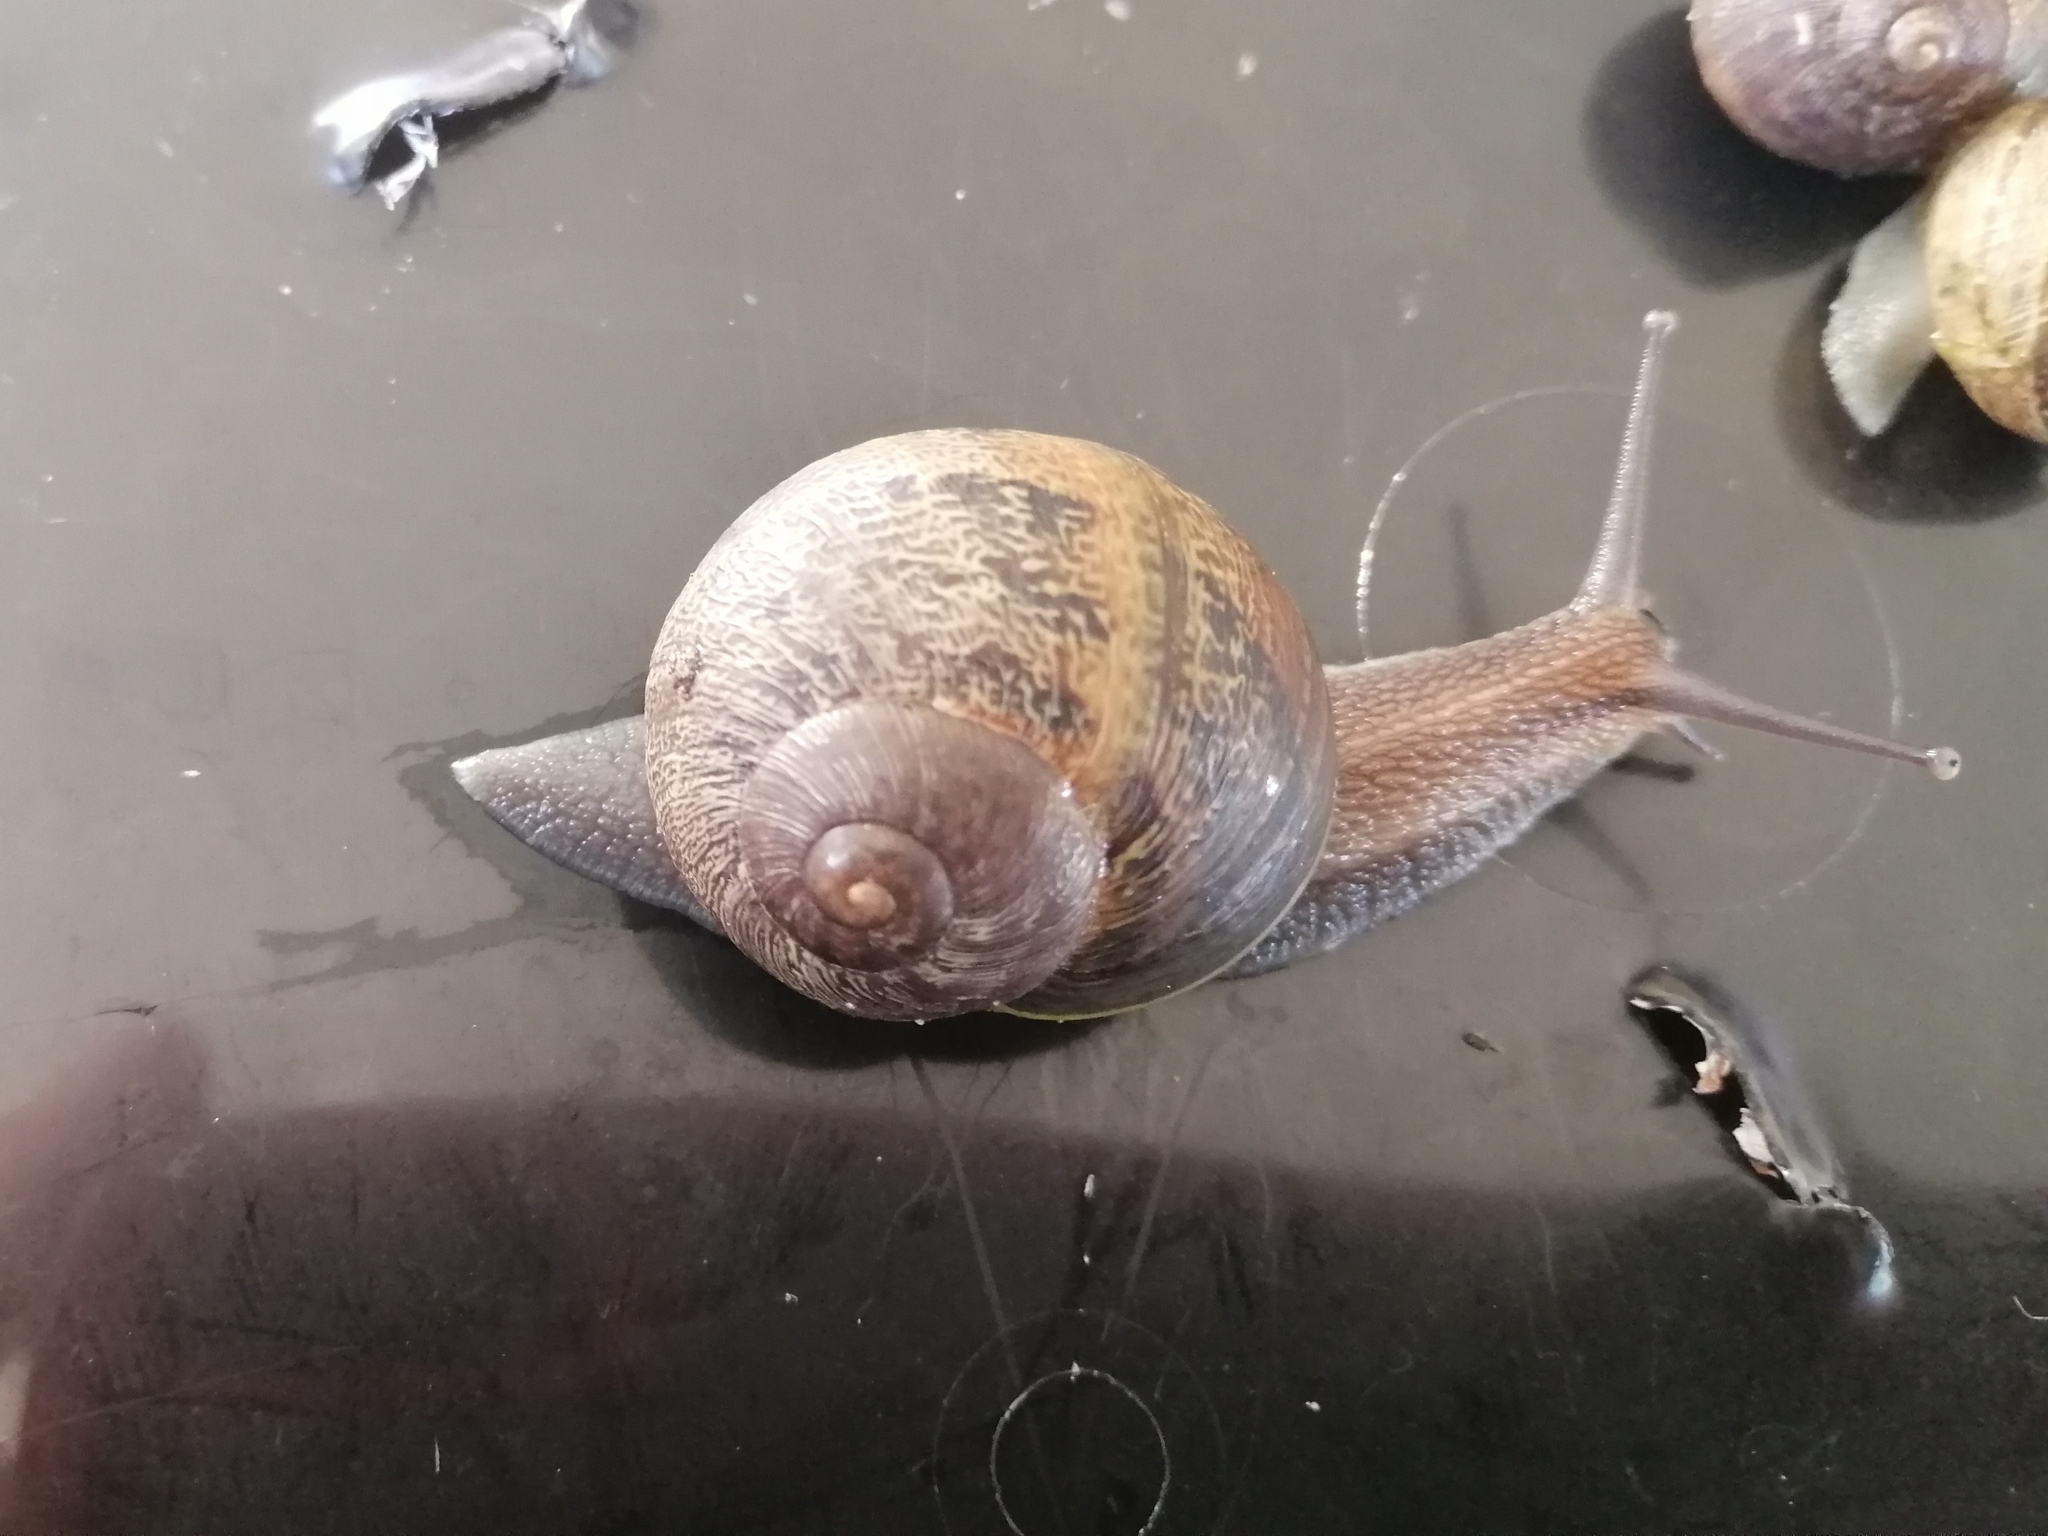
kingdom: Animalia
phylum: Mollusca
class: Gastropoda
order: Stylommatophora
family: Helicidae
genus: Cornu
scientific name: Cornu aspersum
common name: Brown garden snail
